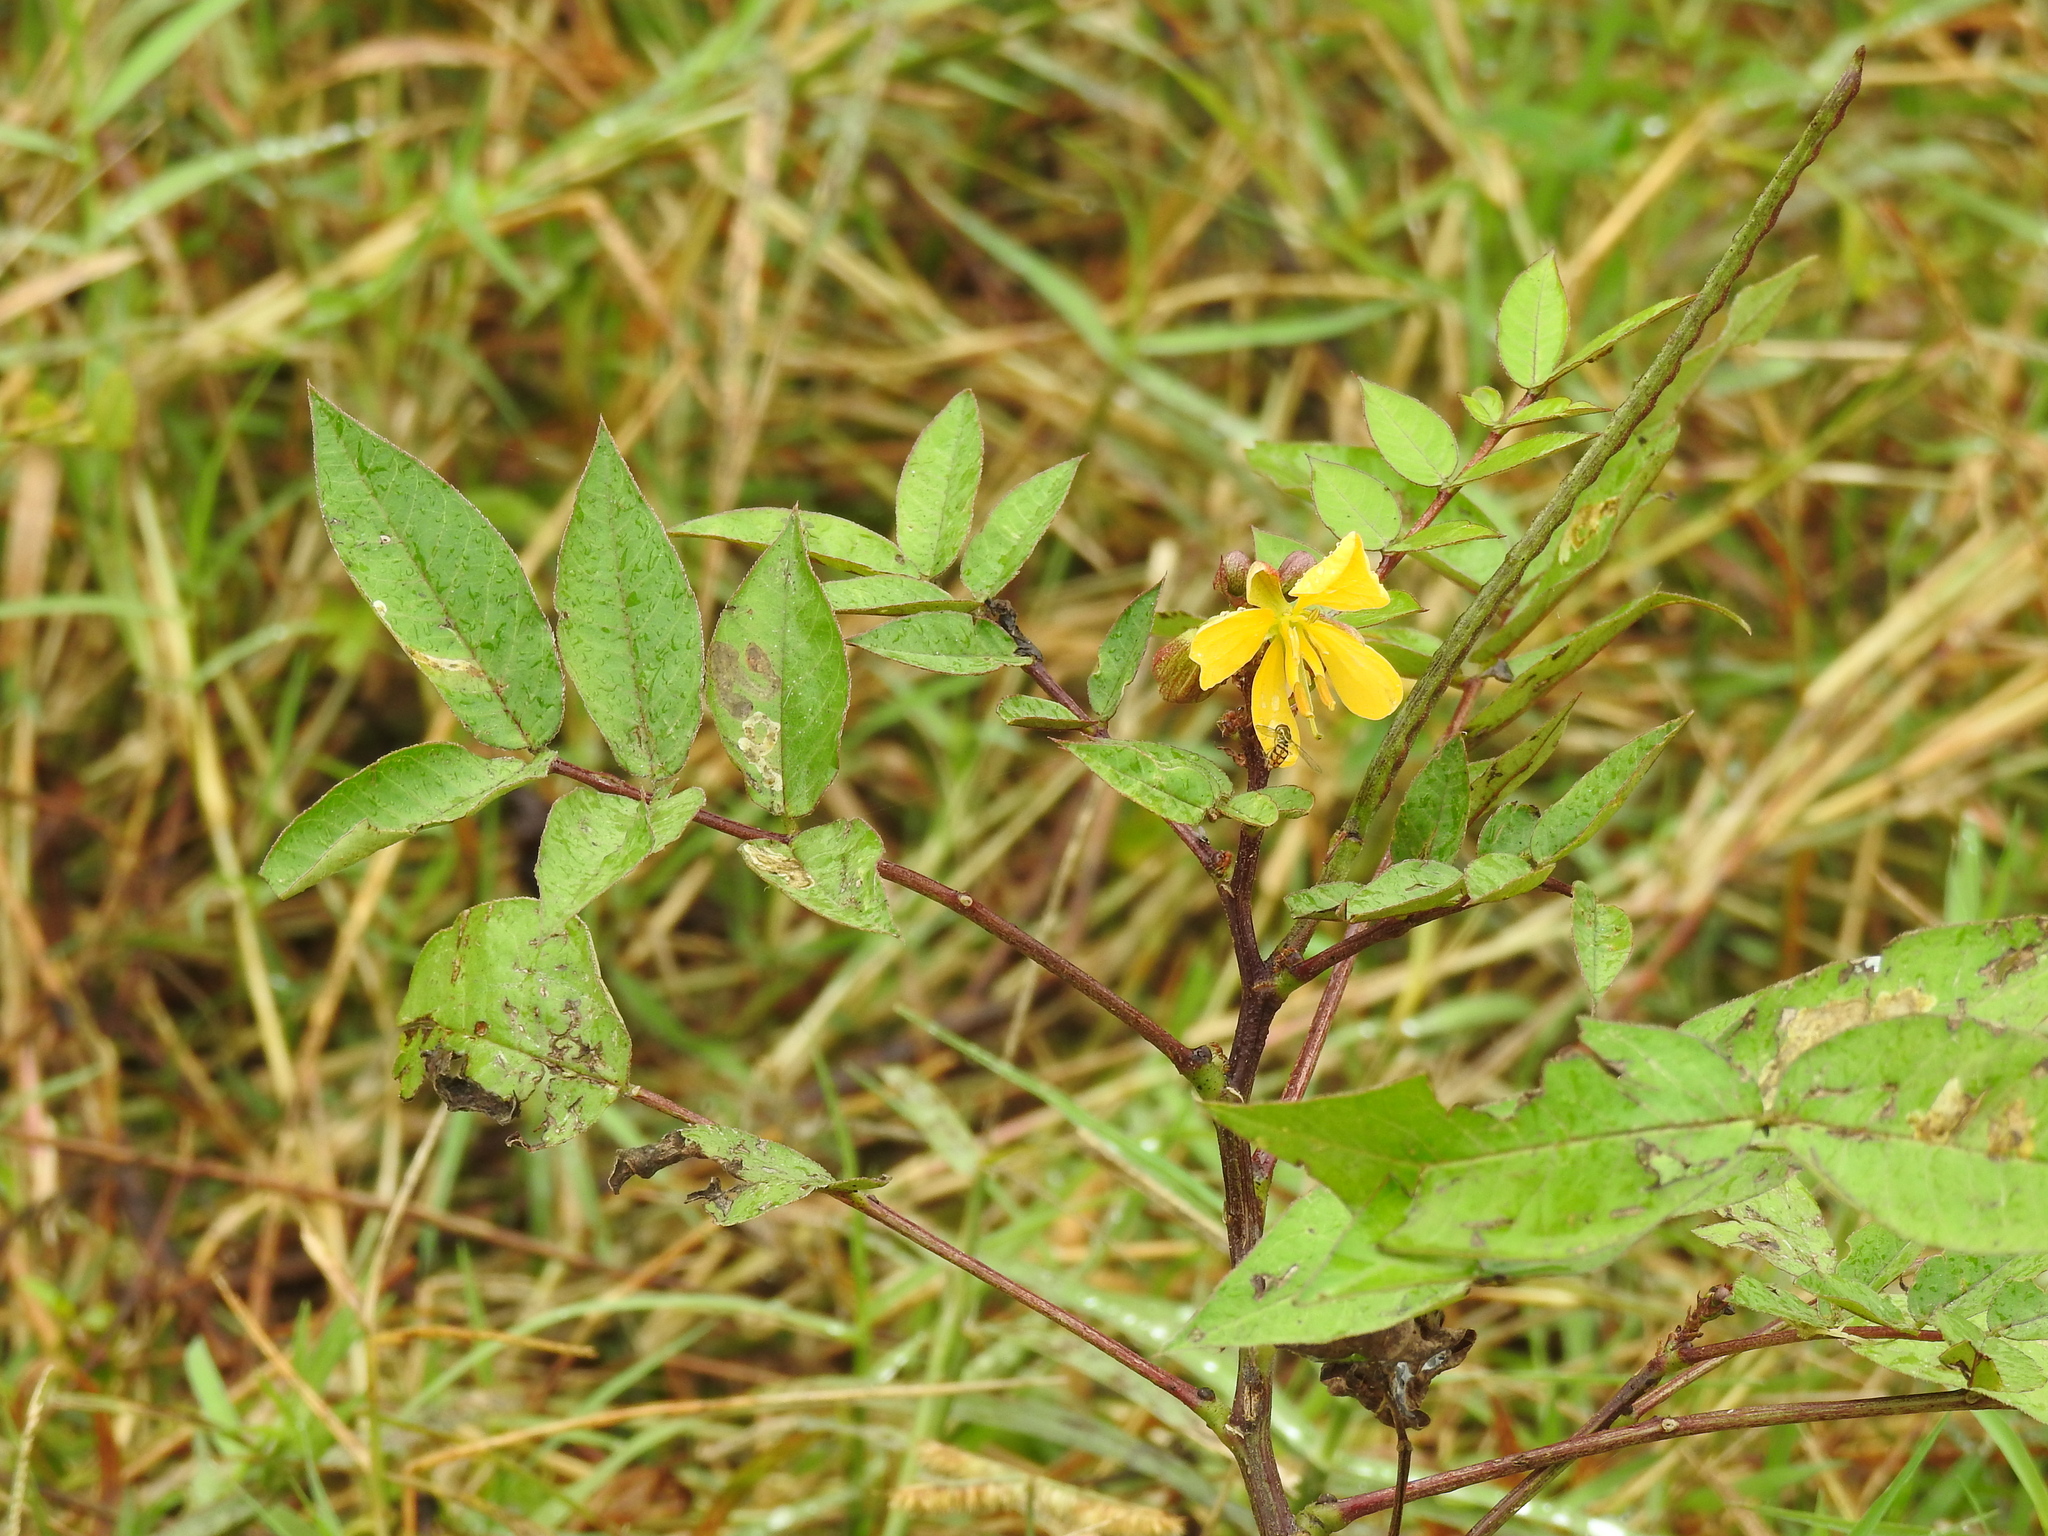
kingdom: Plantae
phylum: Tracheophyta
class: Magnoliopsida
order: Fabales
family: Fabaceae
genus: Senna
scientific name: Senna occidentalis
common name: Septicweed
